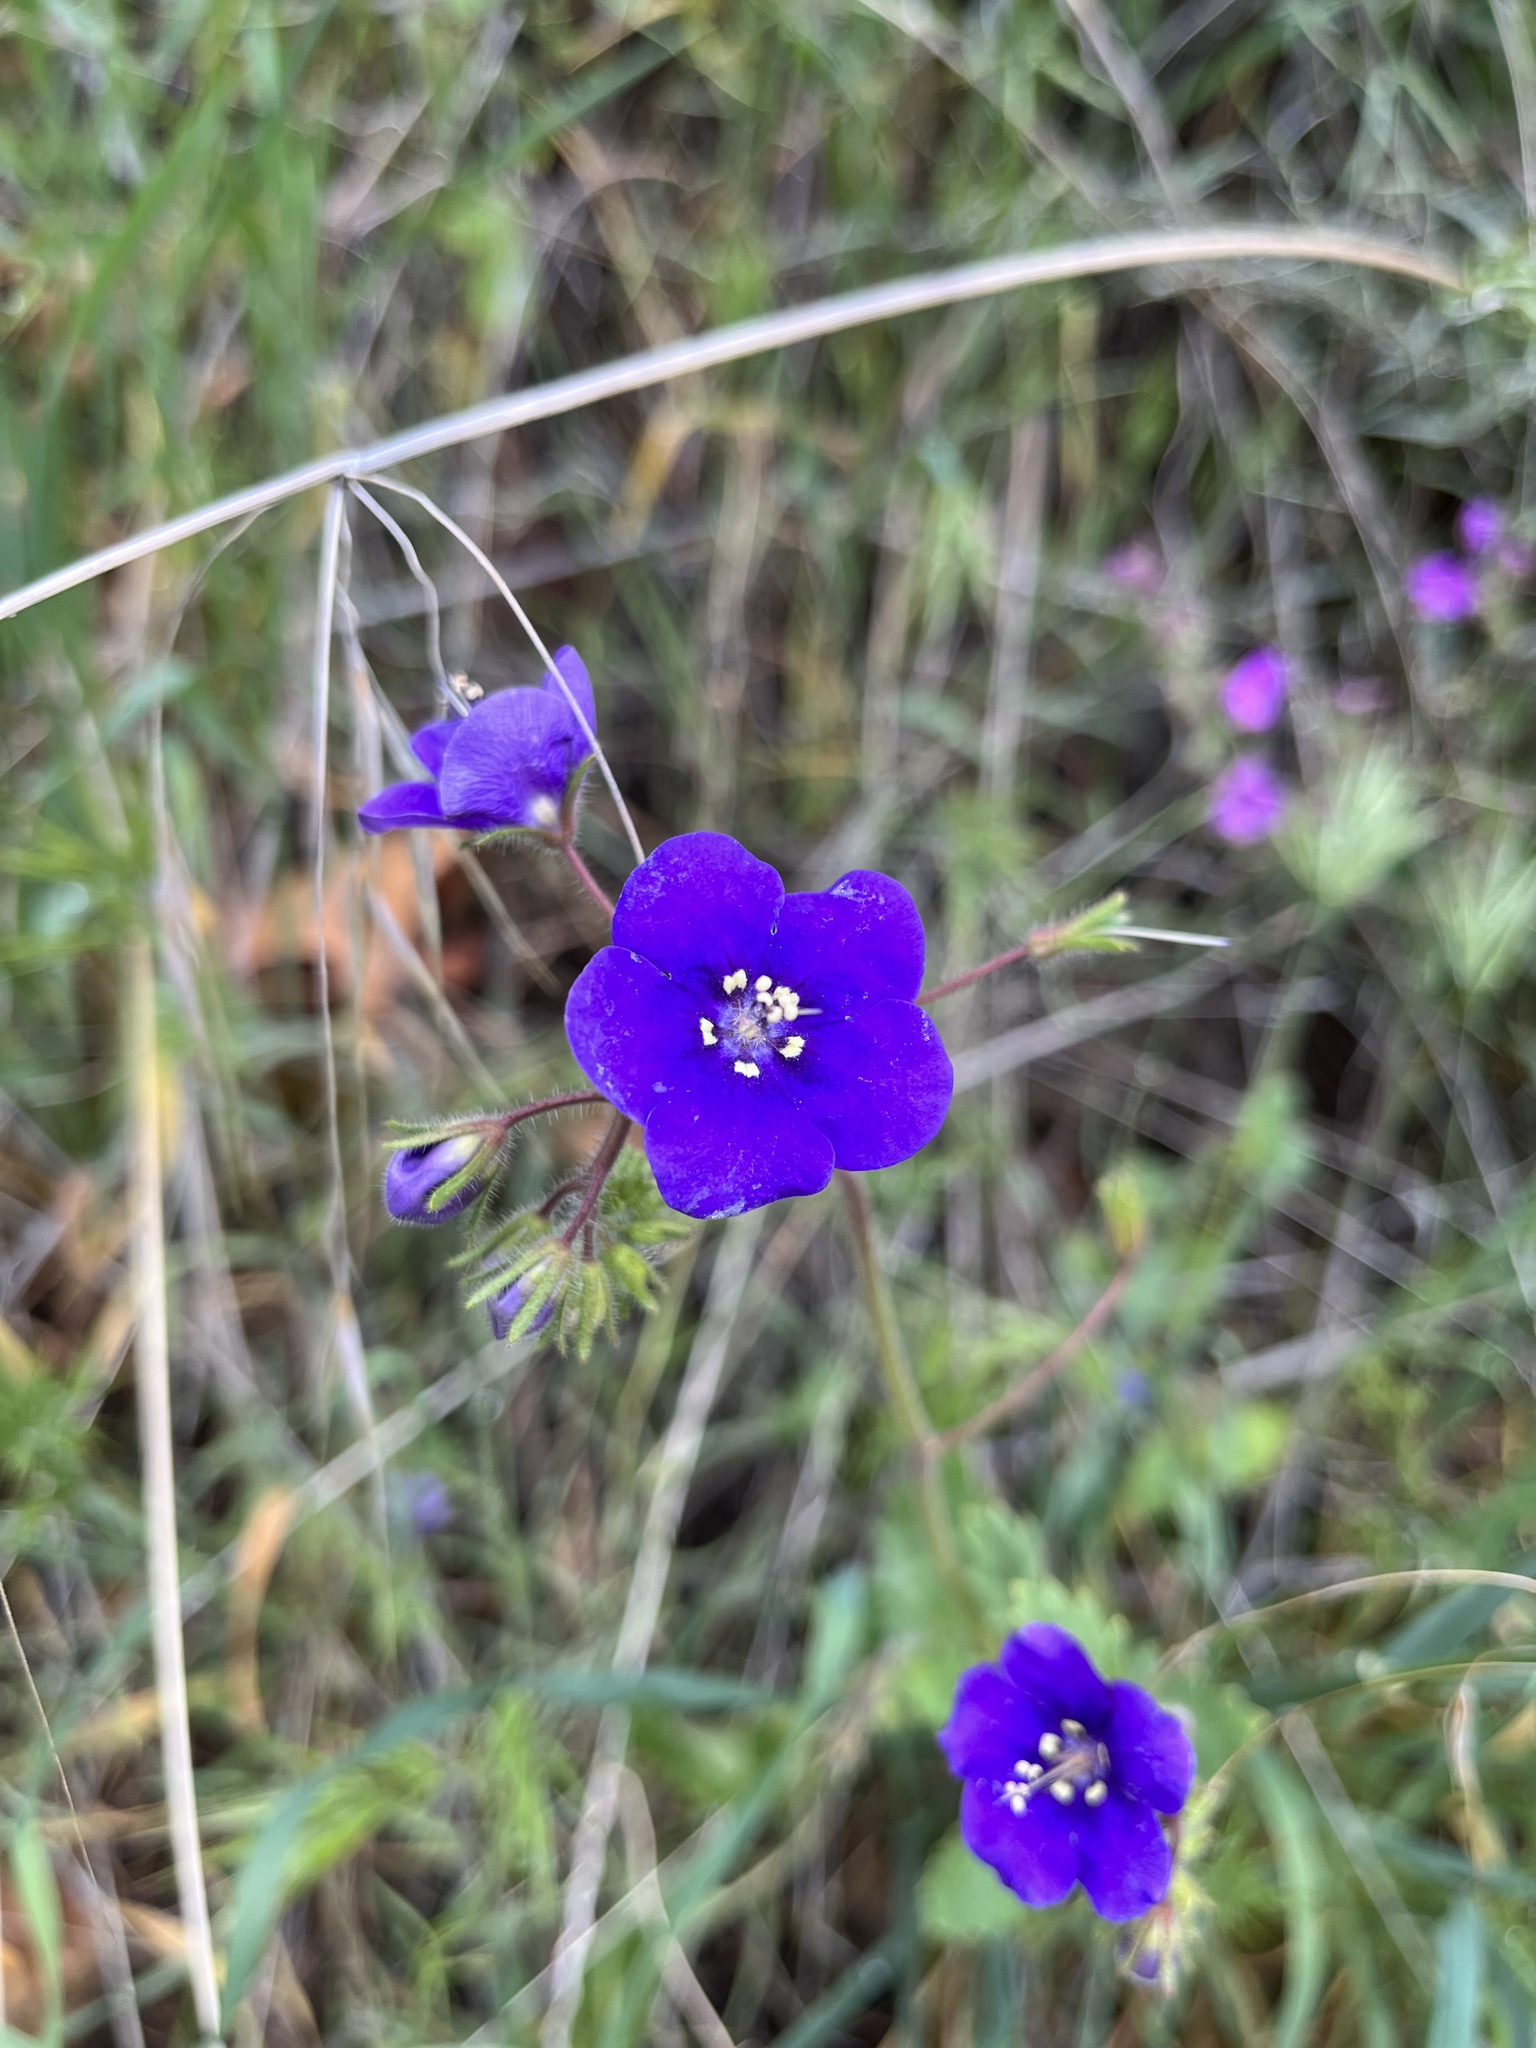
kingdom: Plantae
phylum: Tracheophyta
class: Magnoliopsida
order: Boraginales
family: Hydrophyllaceae
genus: Phacelia
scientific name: Phacelia parryi
